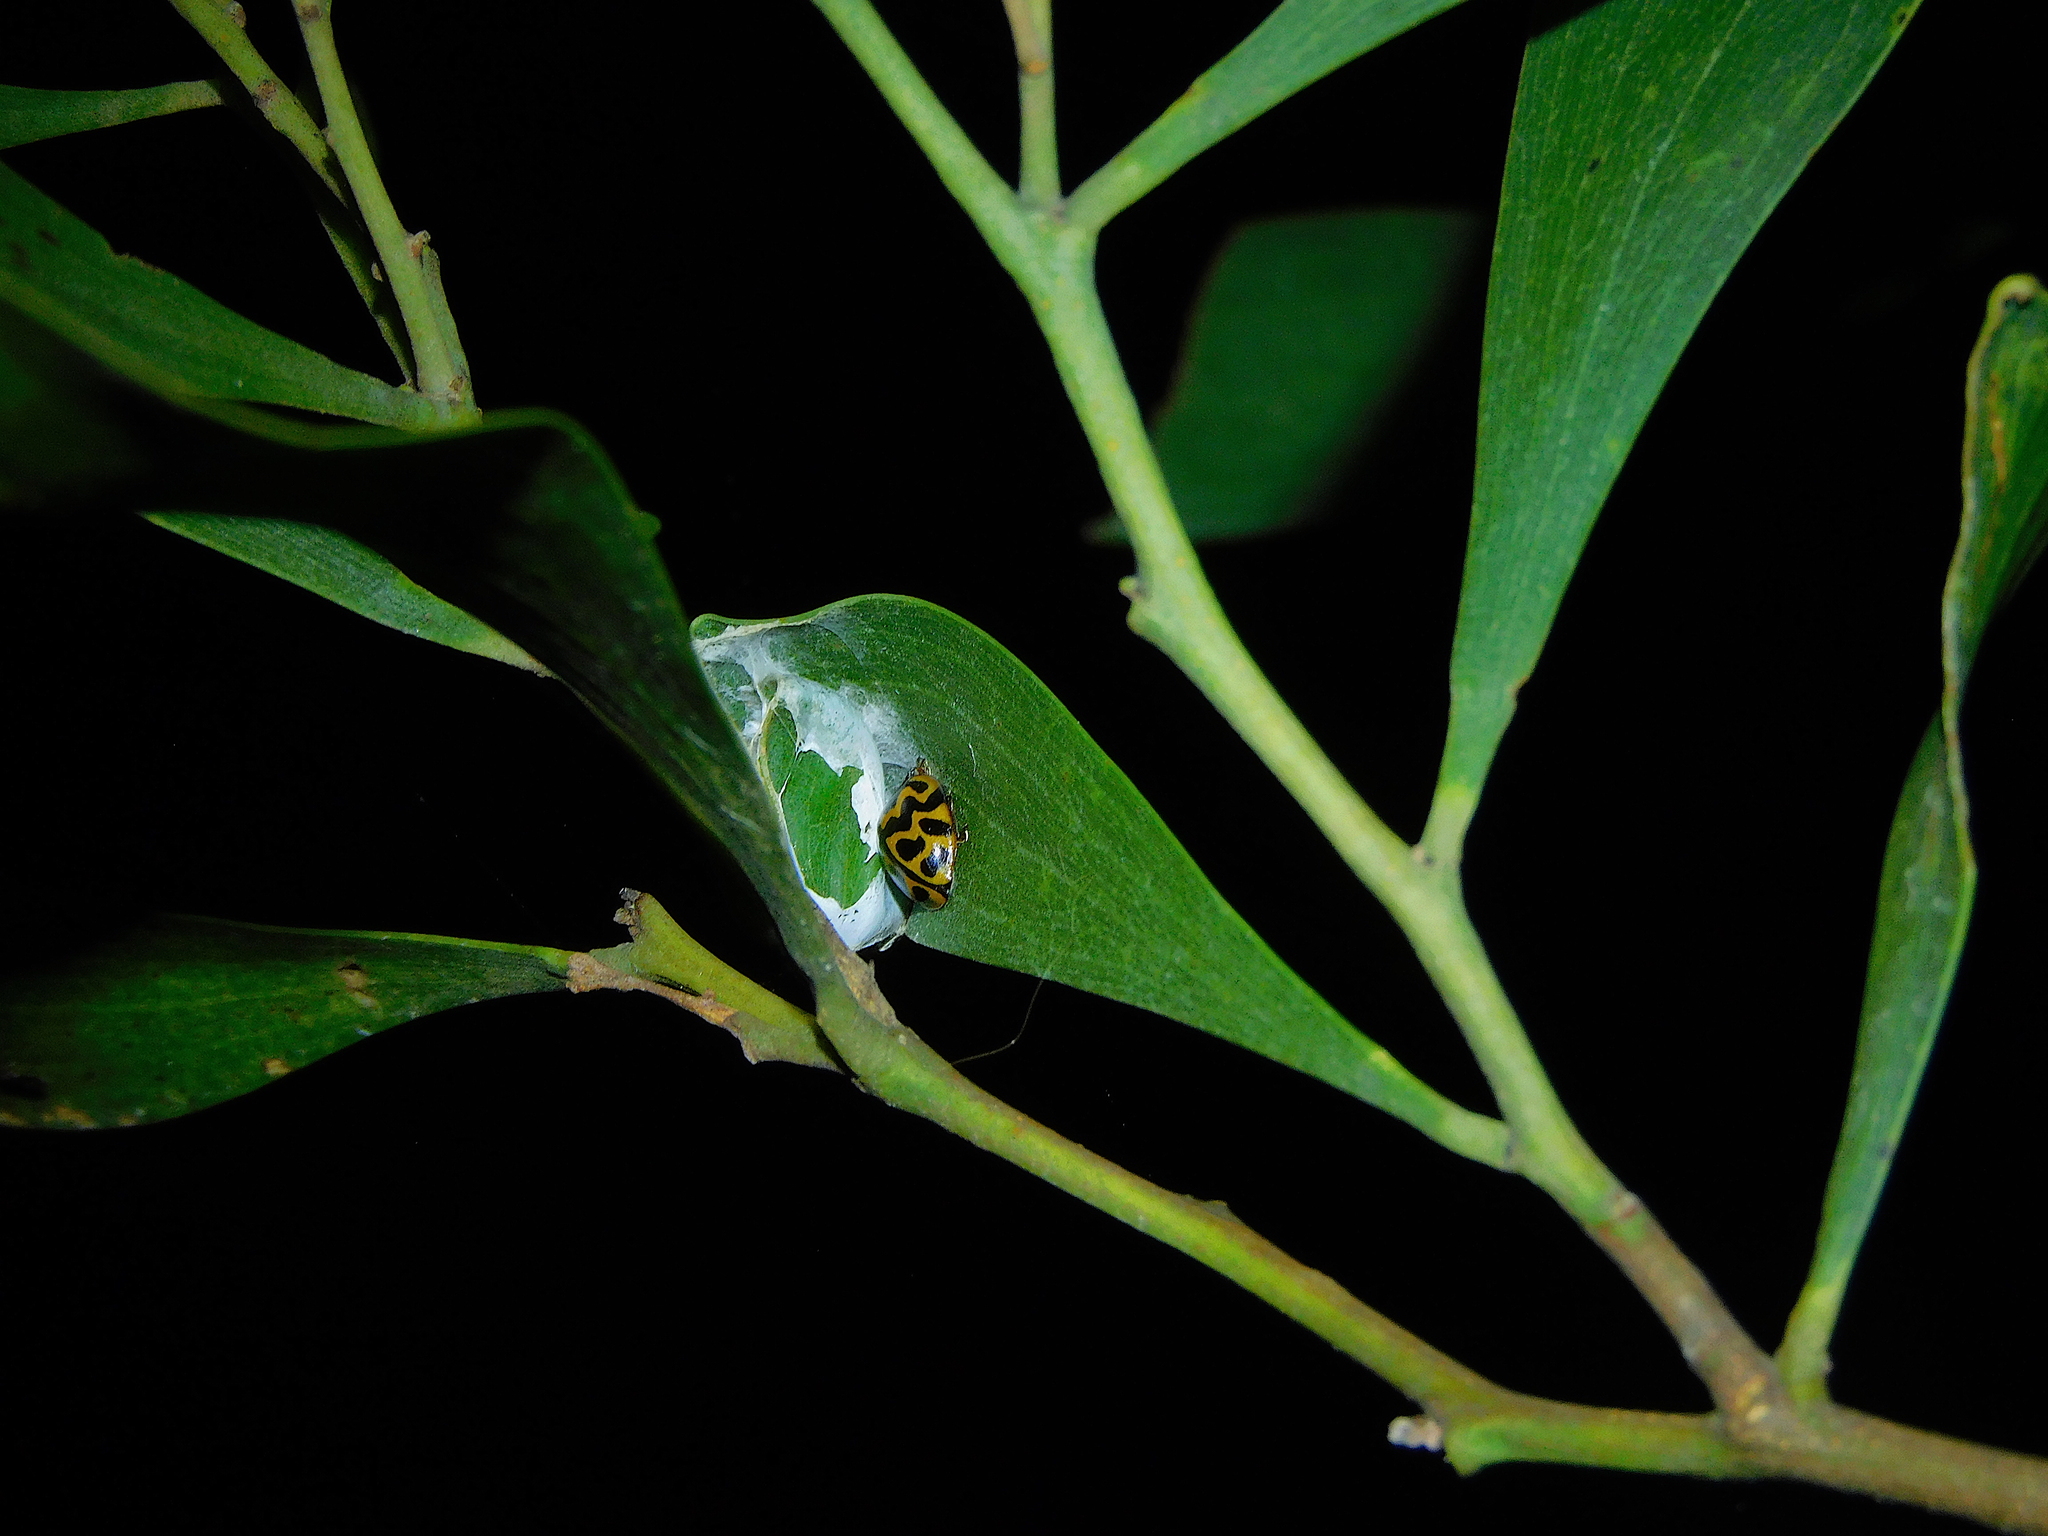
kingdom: Animalia
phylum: Arthropoda
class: Insecta
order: Coleoptera
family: Coccinellidae
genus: Cleobora
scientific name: Cleobora
